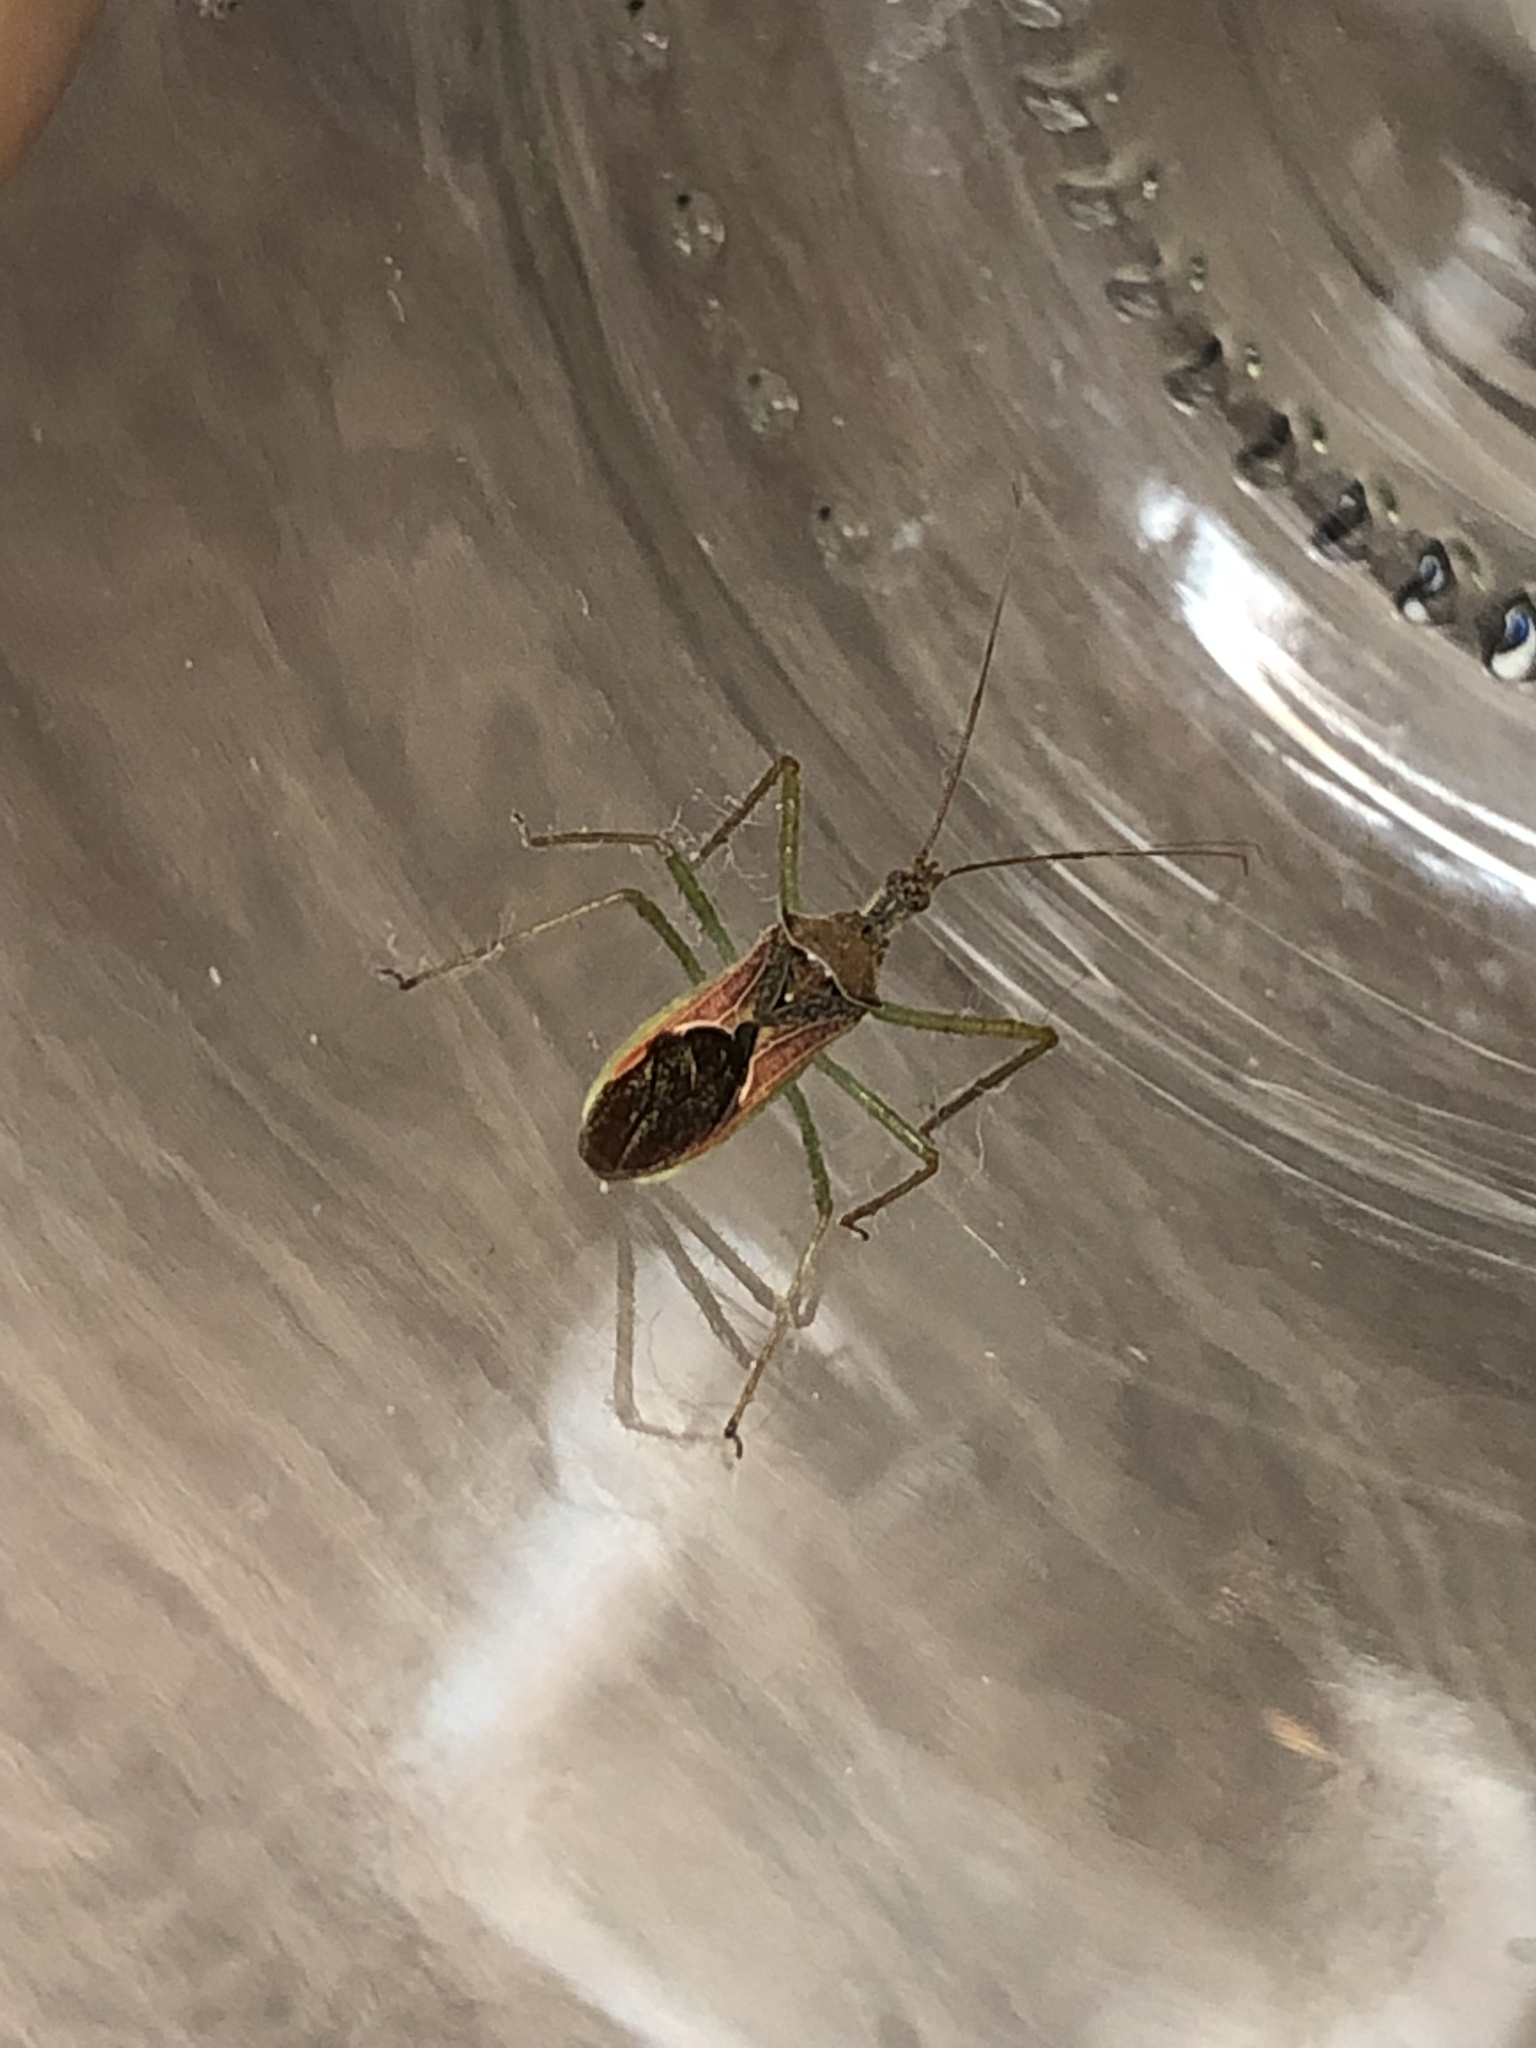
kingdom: Animalia
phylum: Arthropoda
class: Insecta
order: Hemiptera
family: Reduviidae
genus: Zelus
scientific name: Zelus renardii
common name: Assassin bug
